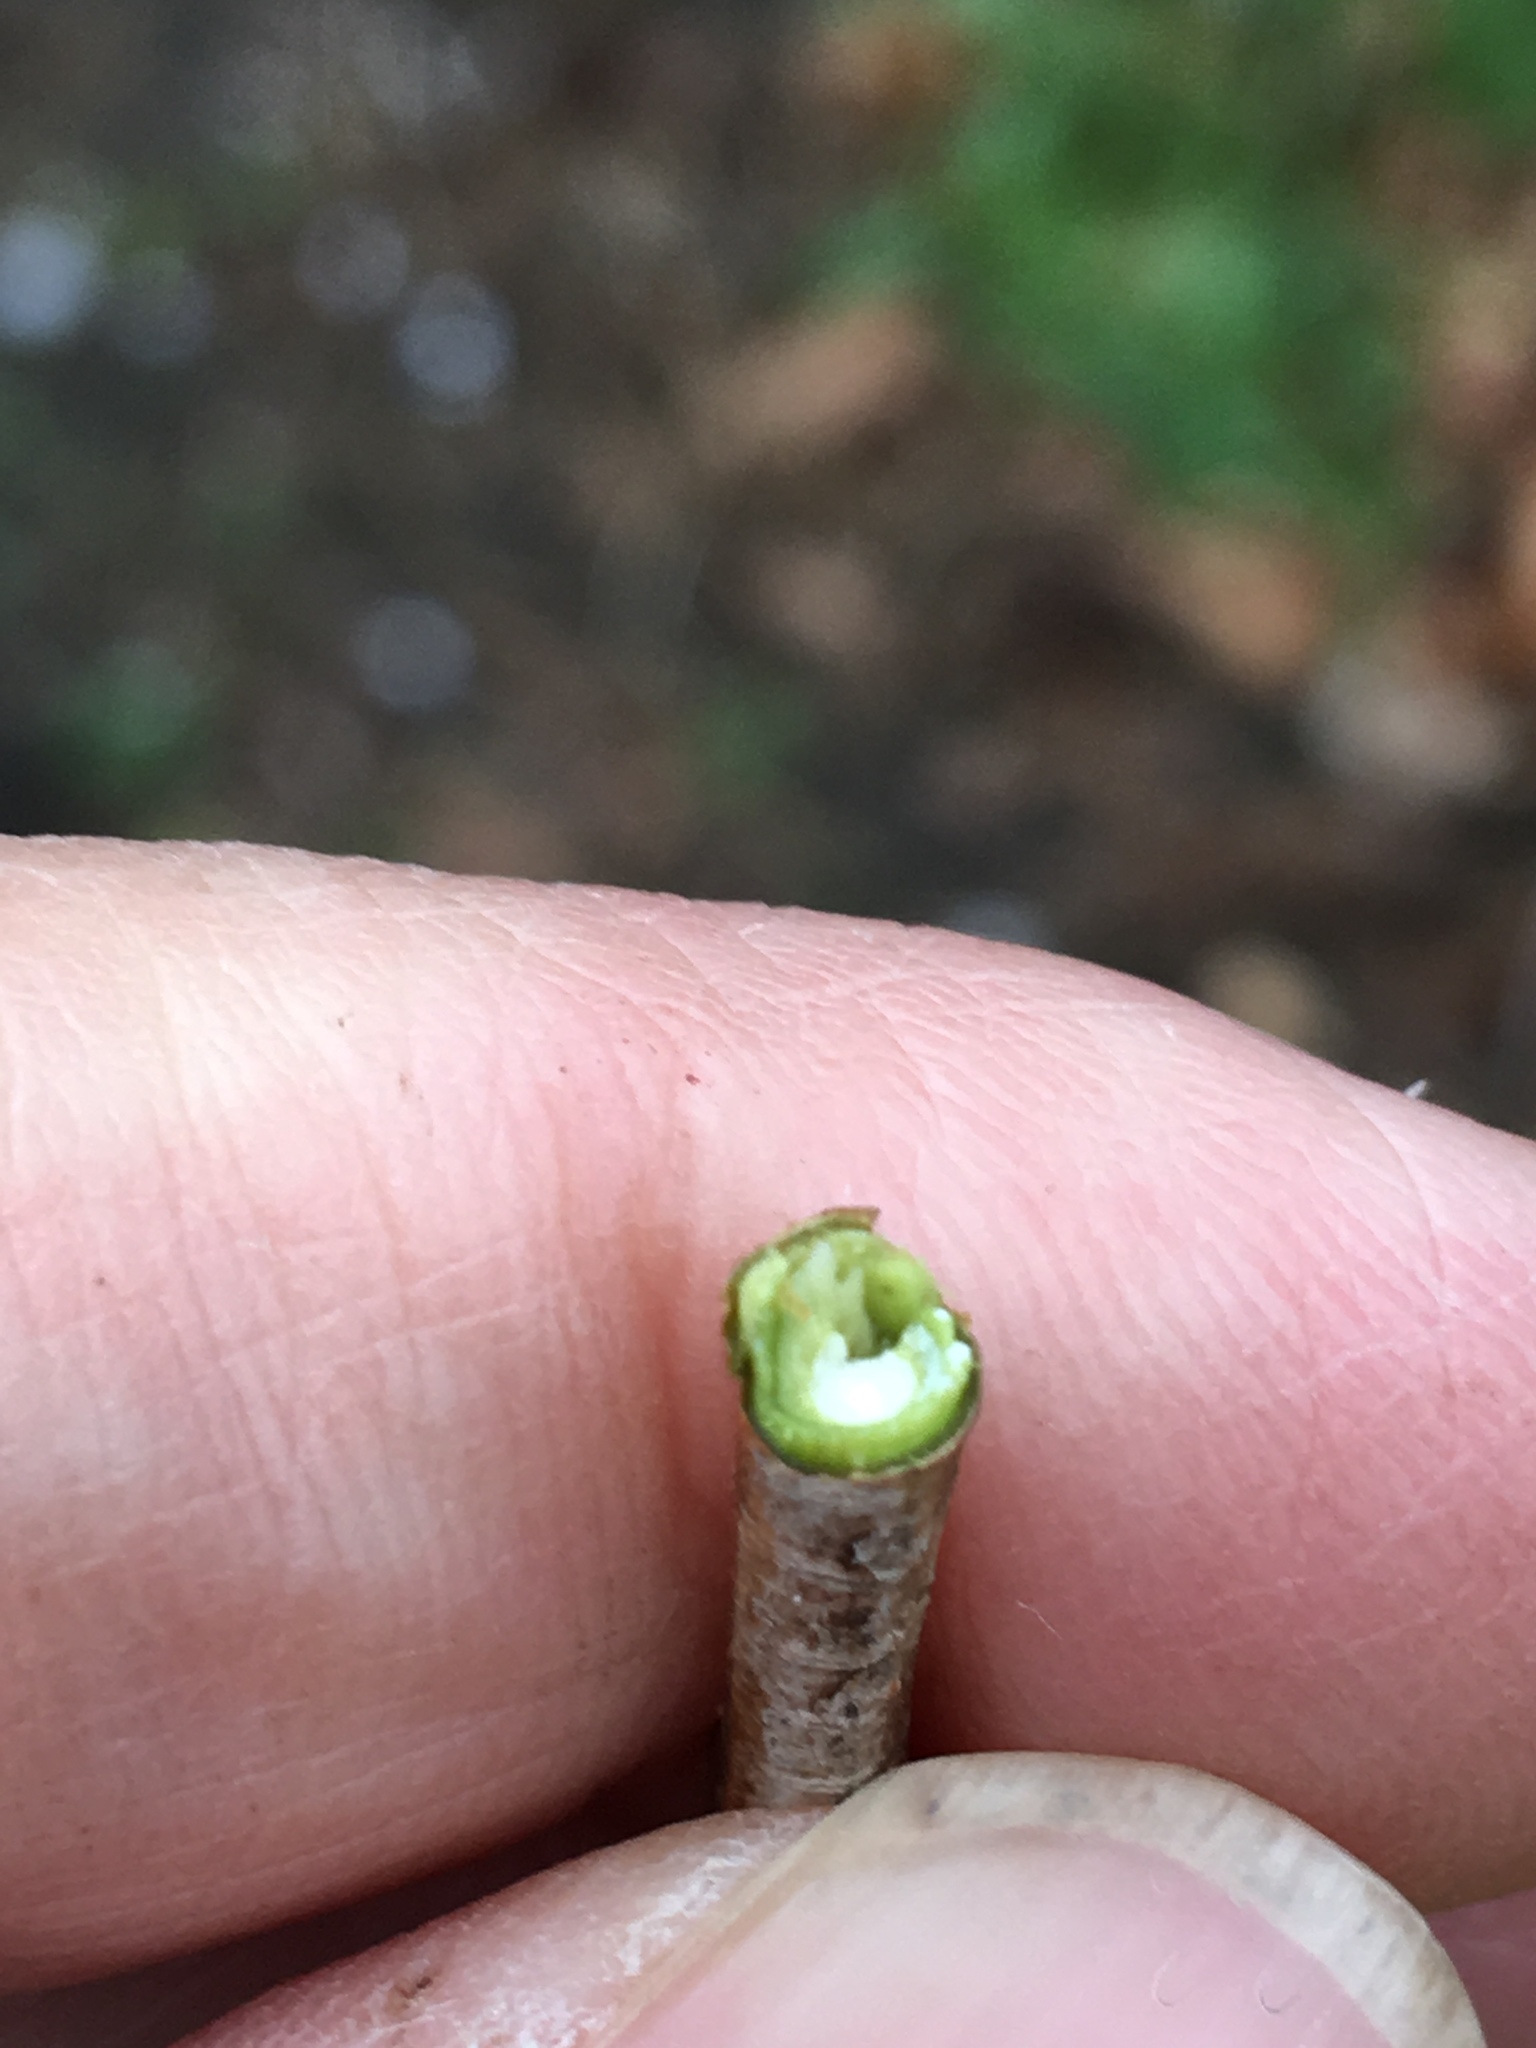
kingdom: Plantae
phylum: Tracheophyta
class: Magnoliopsida
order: Sapindales
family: Sapindaceae
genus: Acer
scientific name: Acer platanoides
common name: Norway maple
